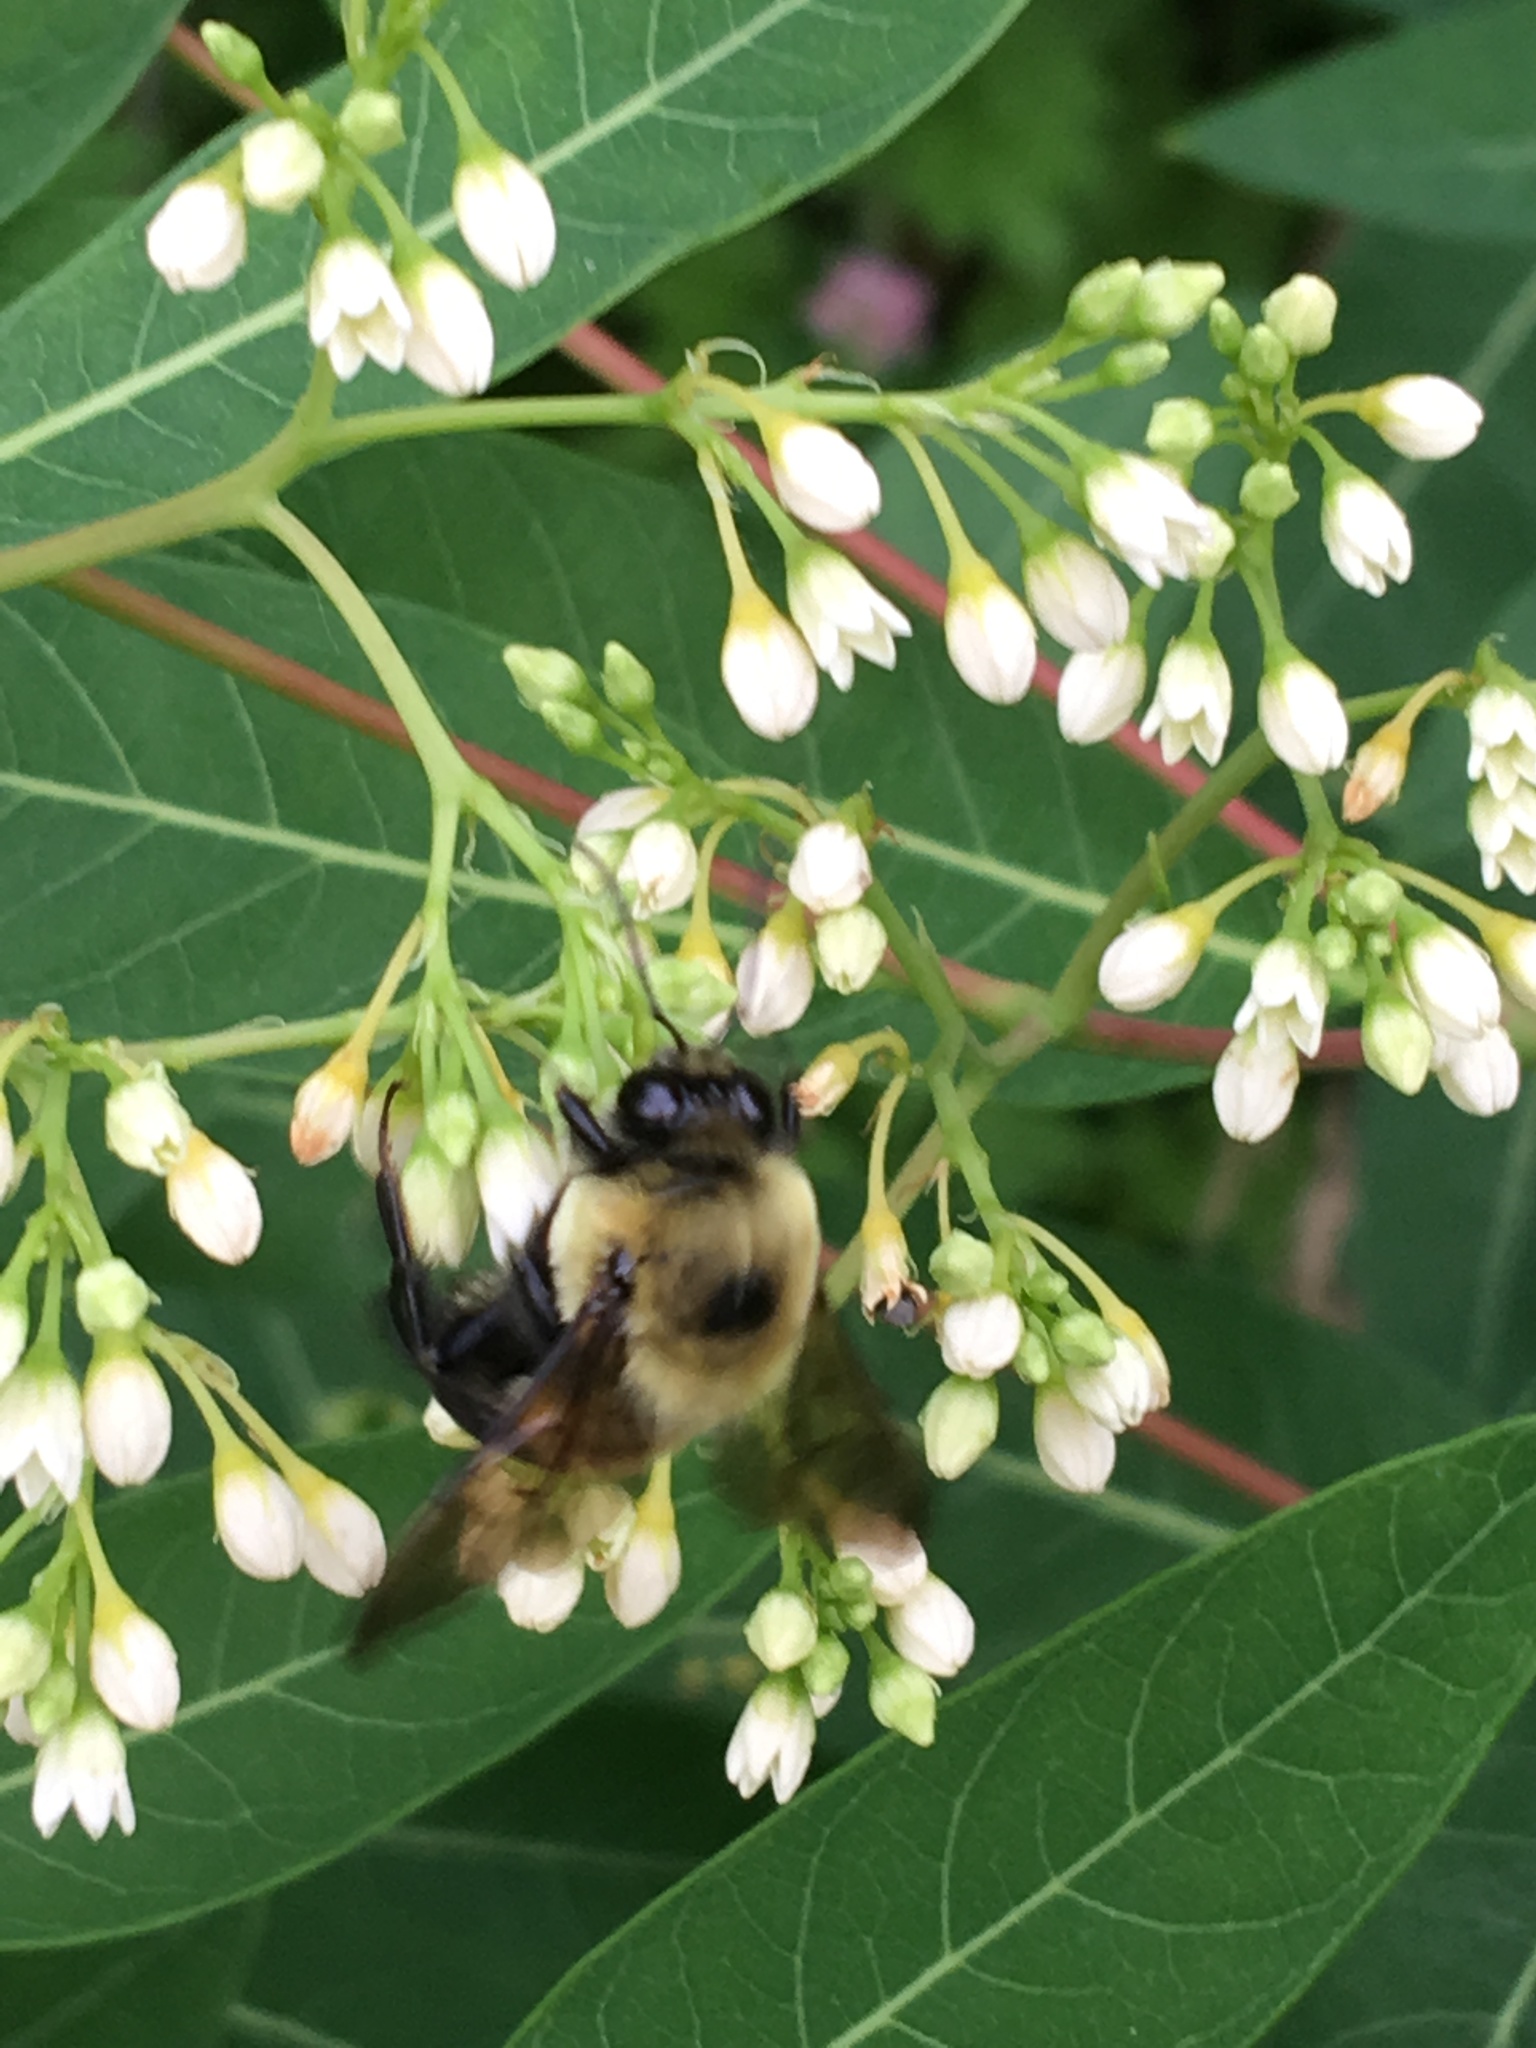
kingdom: Animalia
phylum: Arthropoda
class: Insecta
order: Hymenoptera
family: Apidae
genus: Bombus
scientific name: Bombus griseocollis
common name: Brown-belted bumble bee
